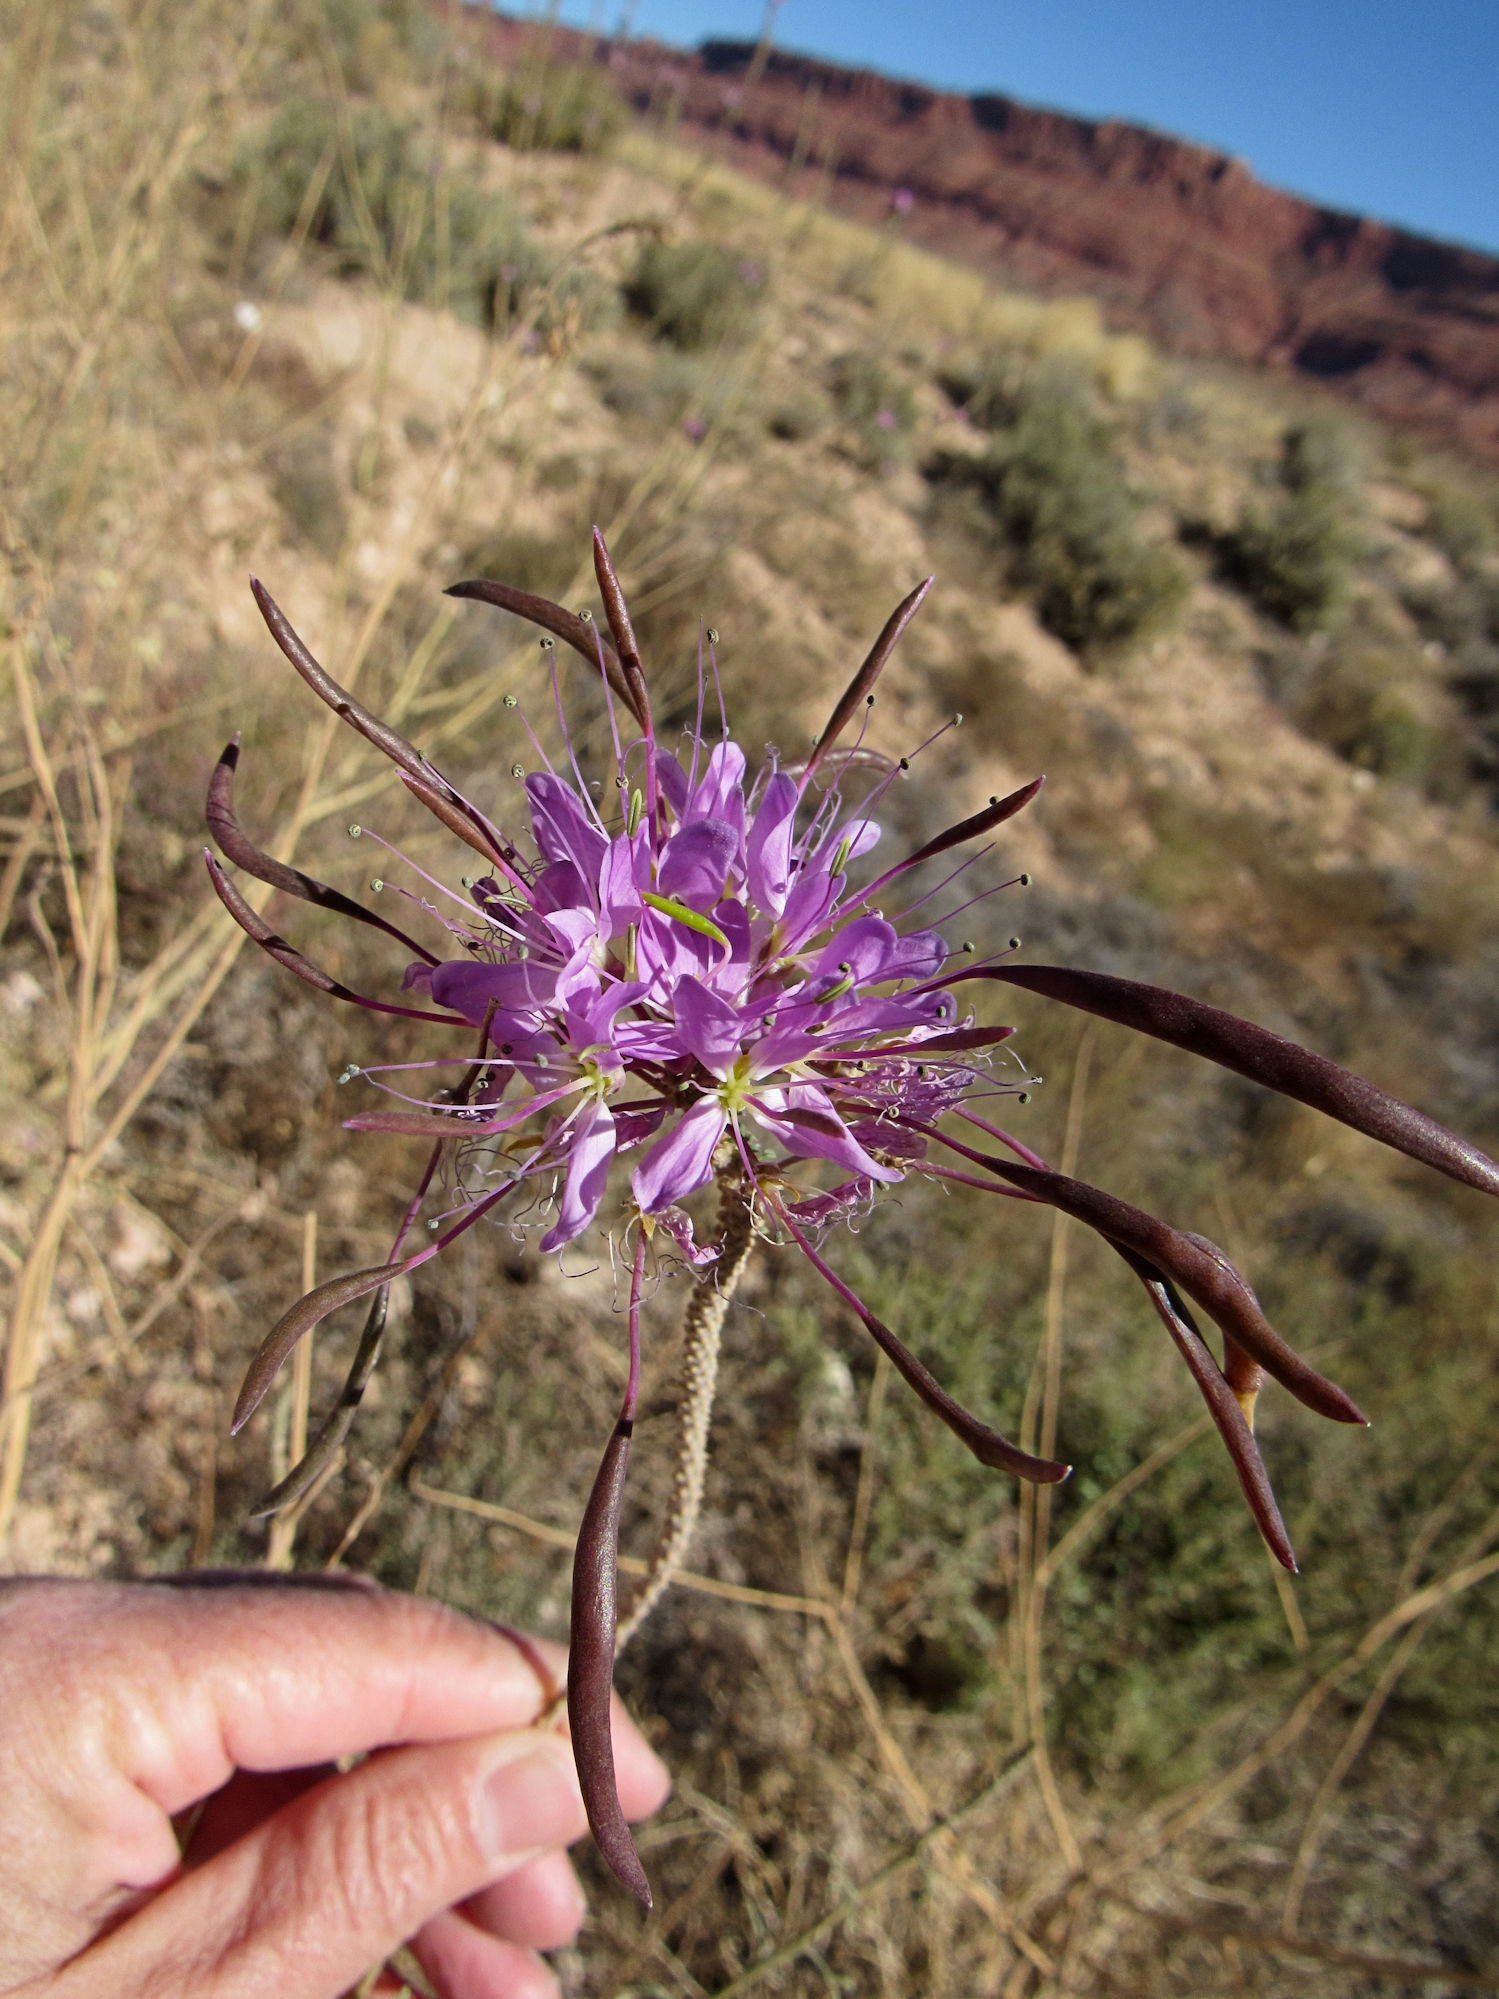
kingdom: Plantae
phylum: Tracheophyta
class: Magnoliopsida
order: Brassicales
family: Cleomaceae
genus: Cleomella
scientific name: Cleomella serrulata
